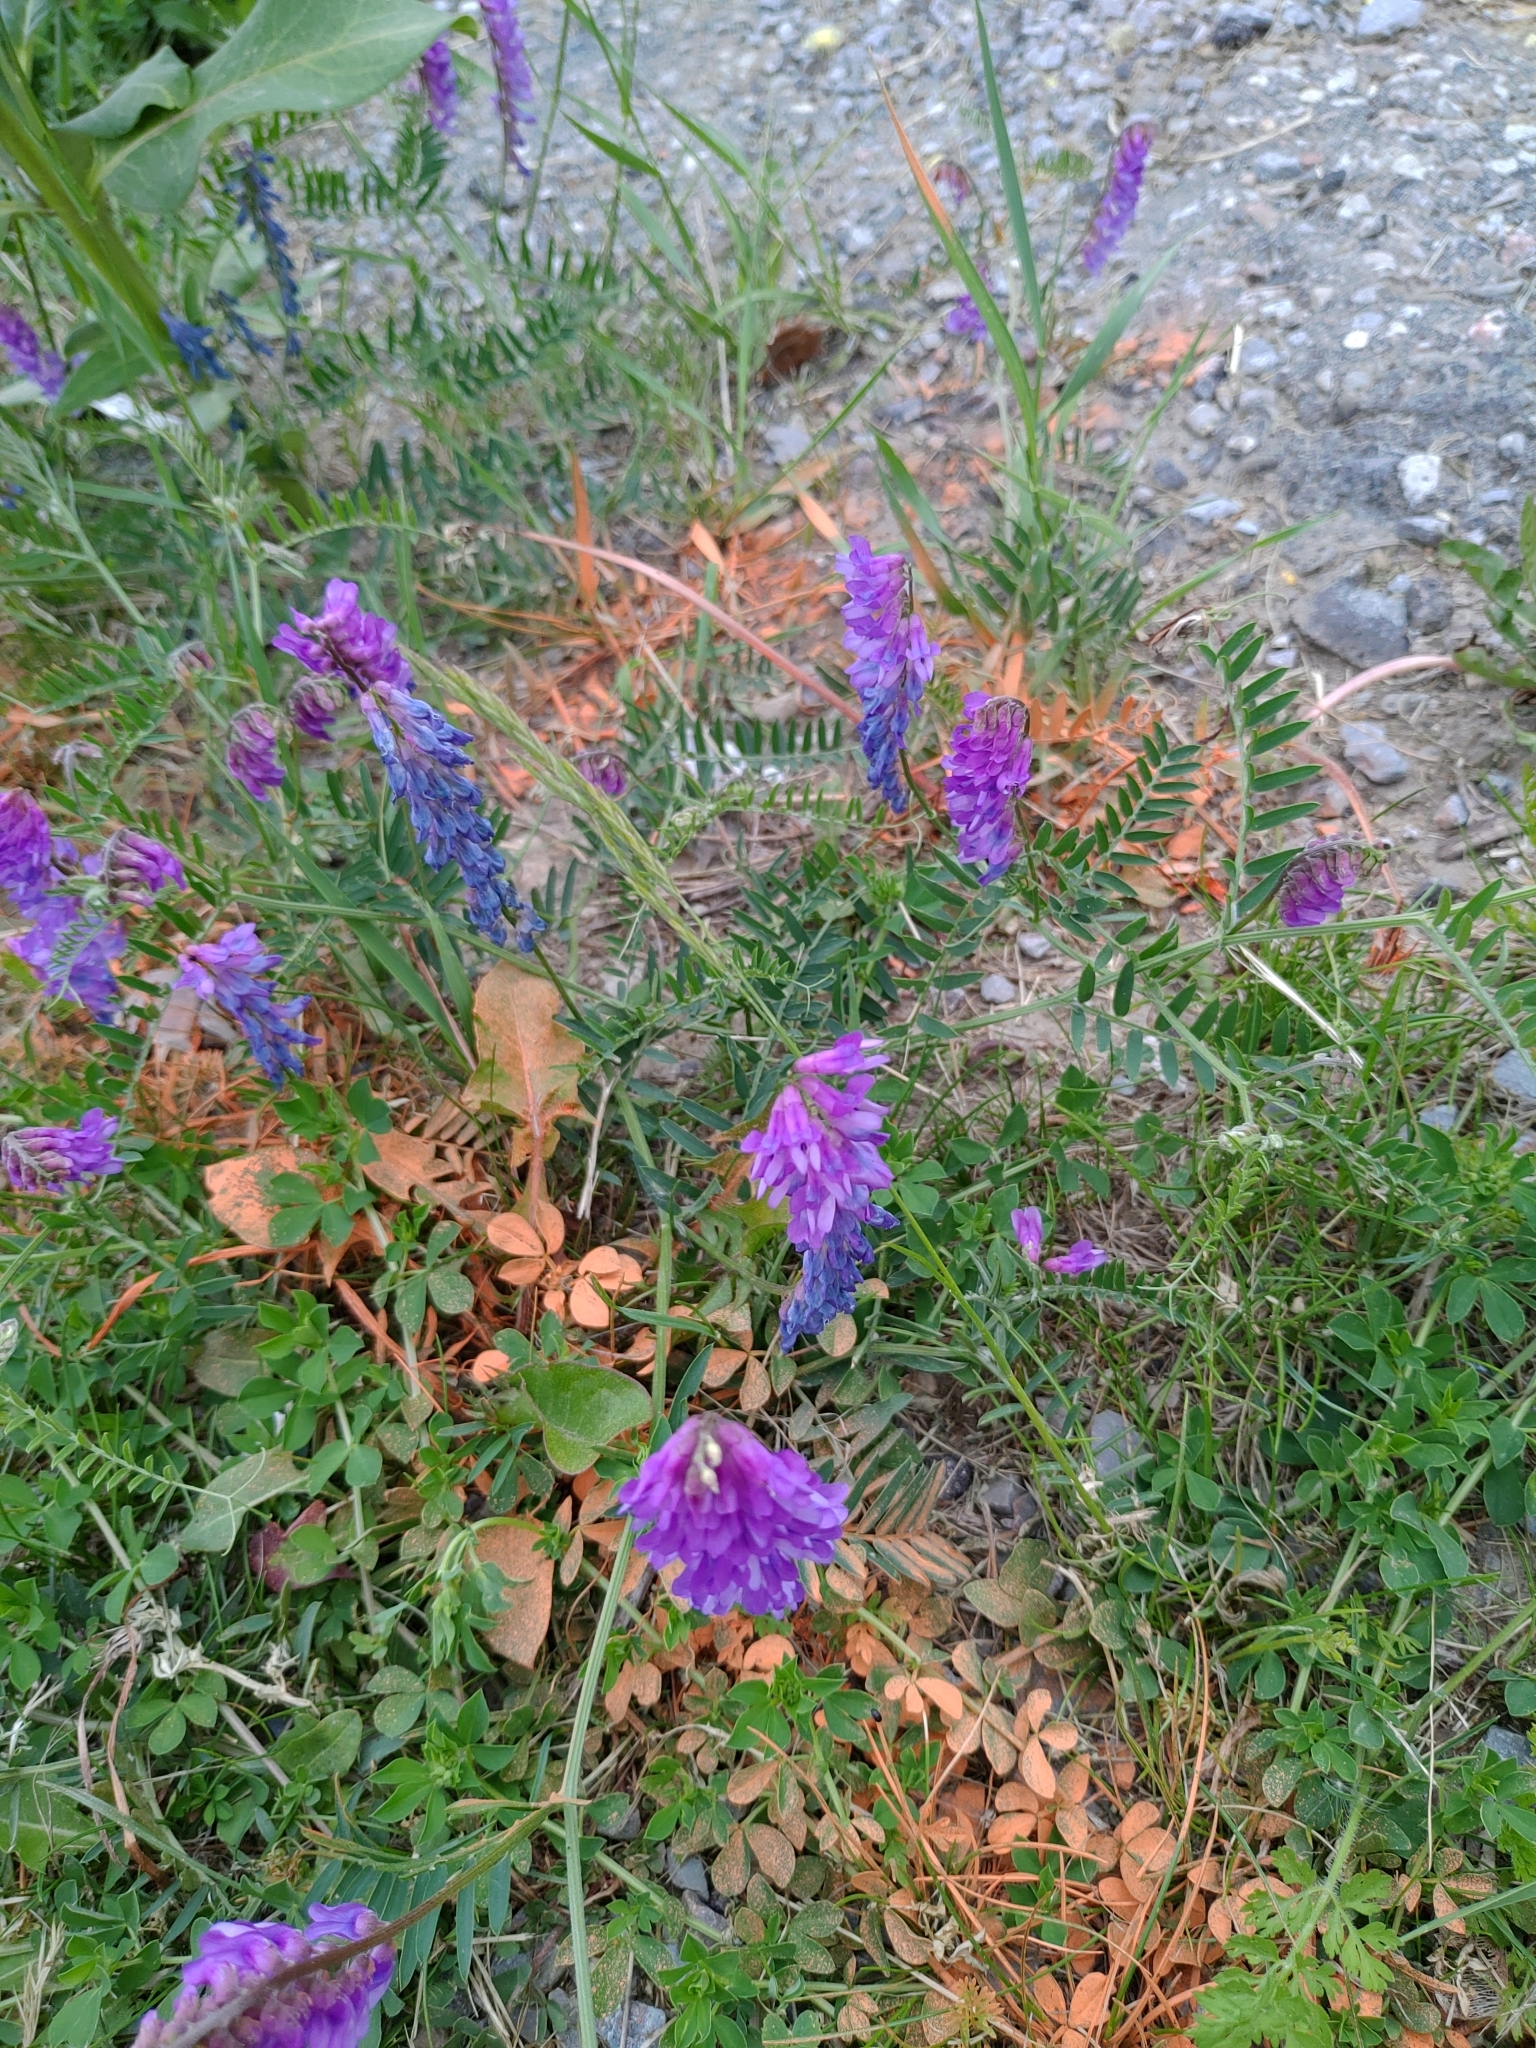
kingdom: Plantae
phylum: Tracheophyta
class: Magnoliopsida
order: Fabales
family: Fabaceae
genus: Vicia
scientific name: Vicia cracca
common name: Bird vetch
